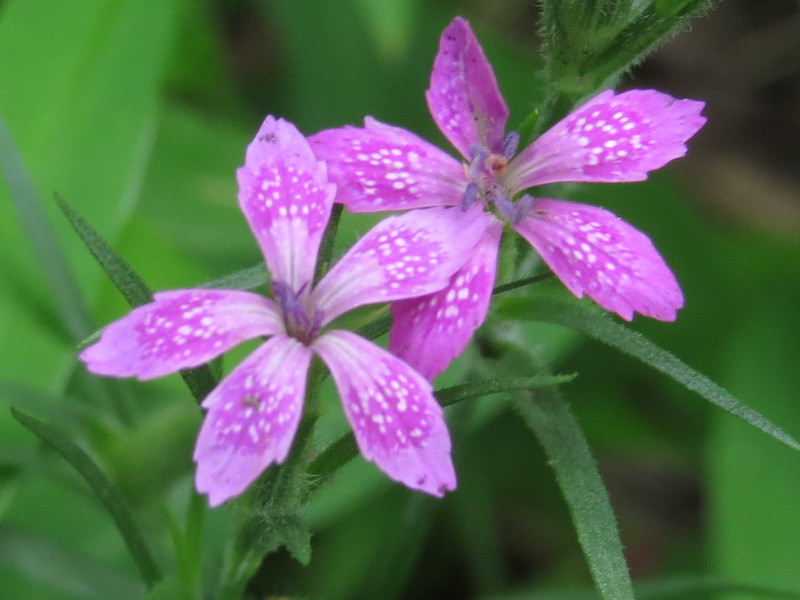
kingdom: Plantae
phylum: Tracheophyta
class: Magnoliopsida
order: Caryophyllales
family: Caryophyllaceae
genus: Dianthus
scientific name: Dianthus armeria
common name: Deptford pink
